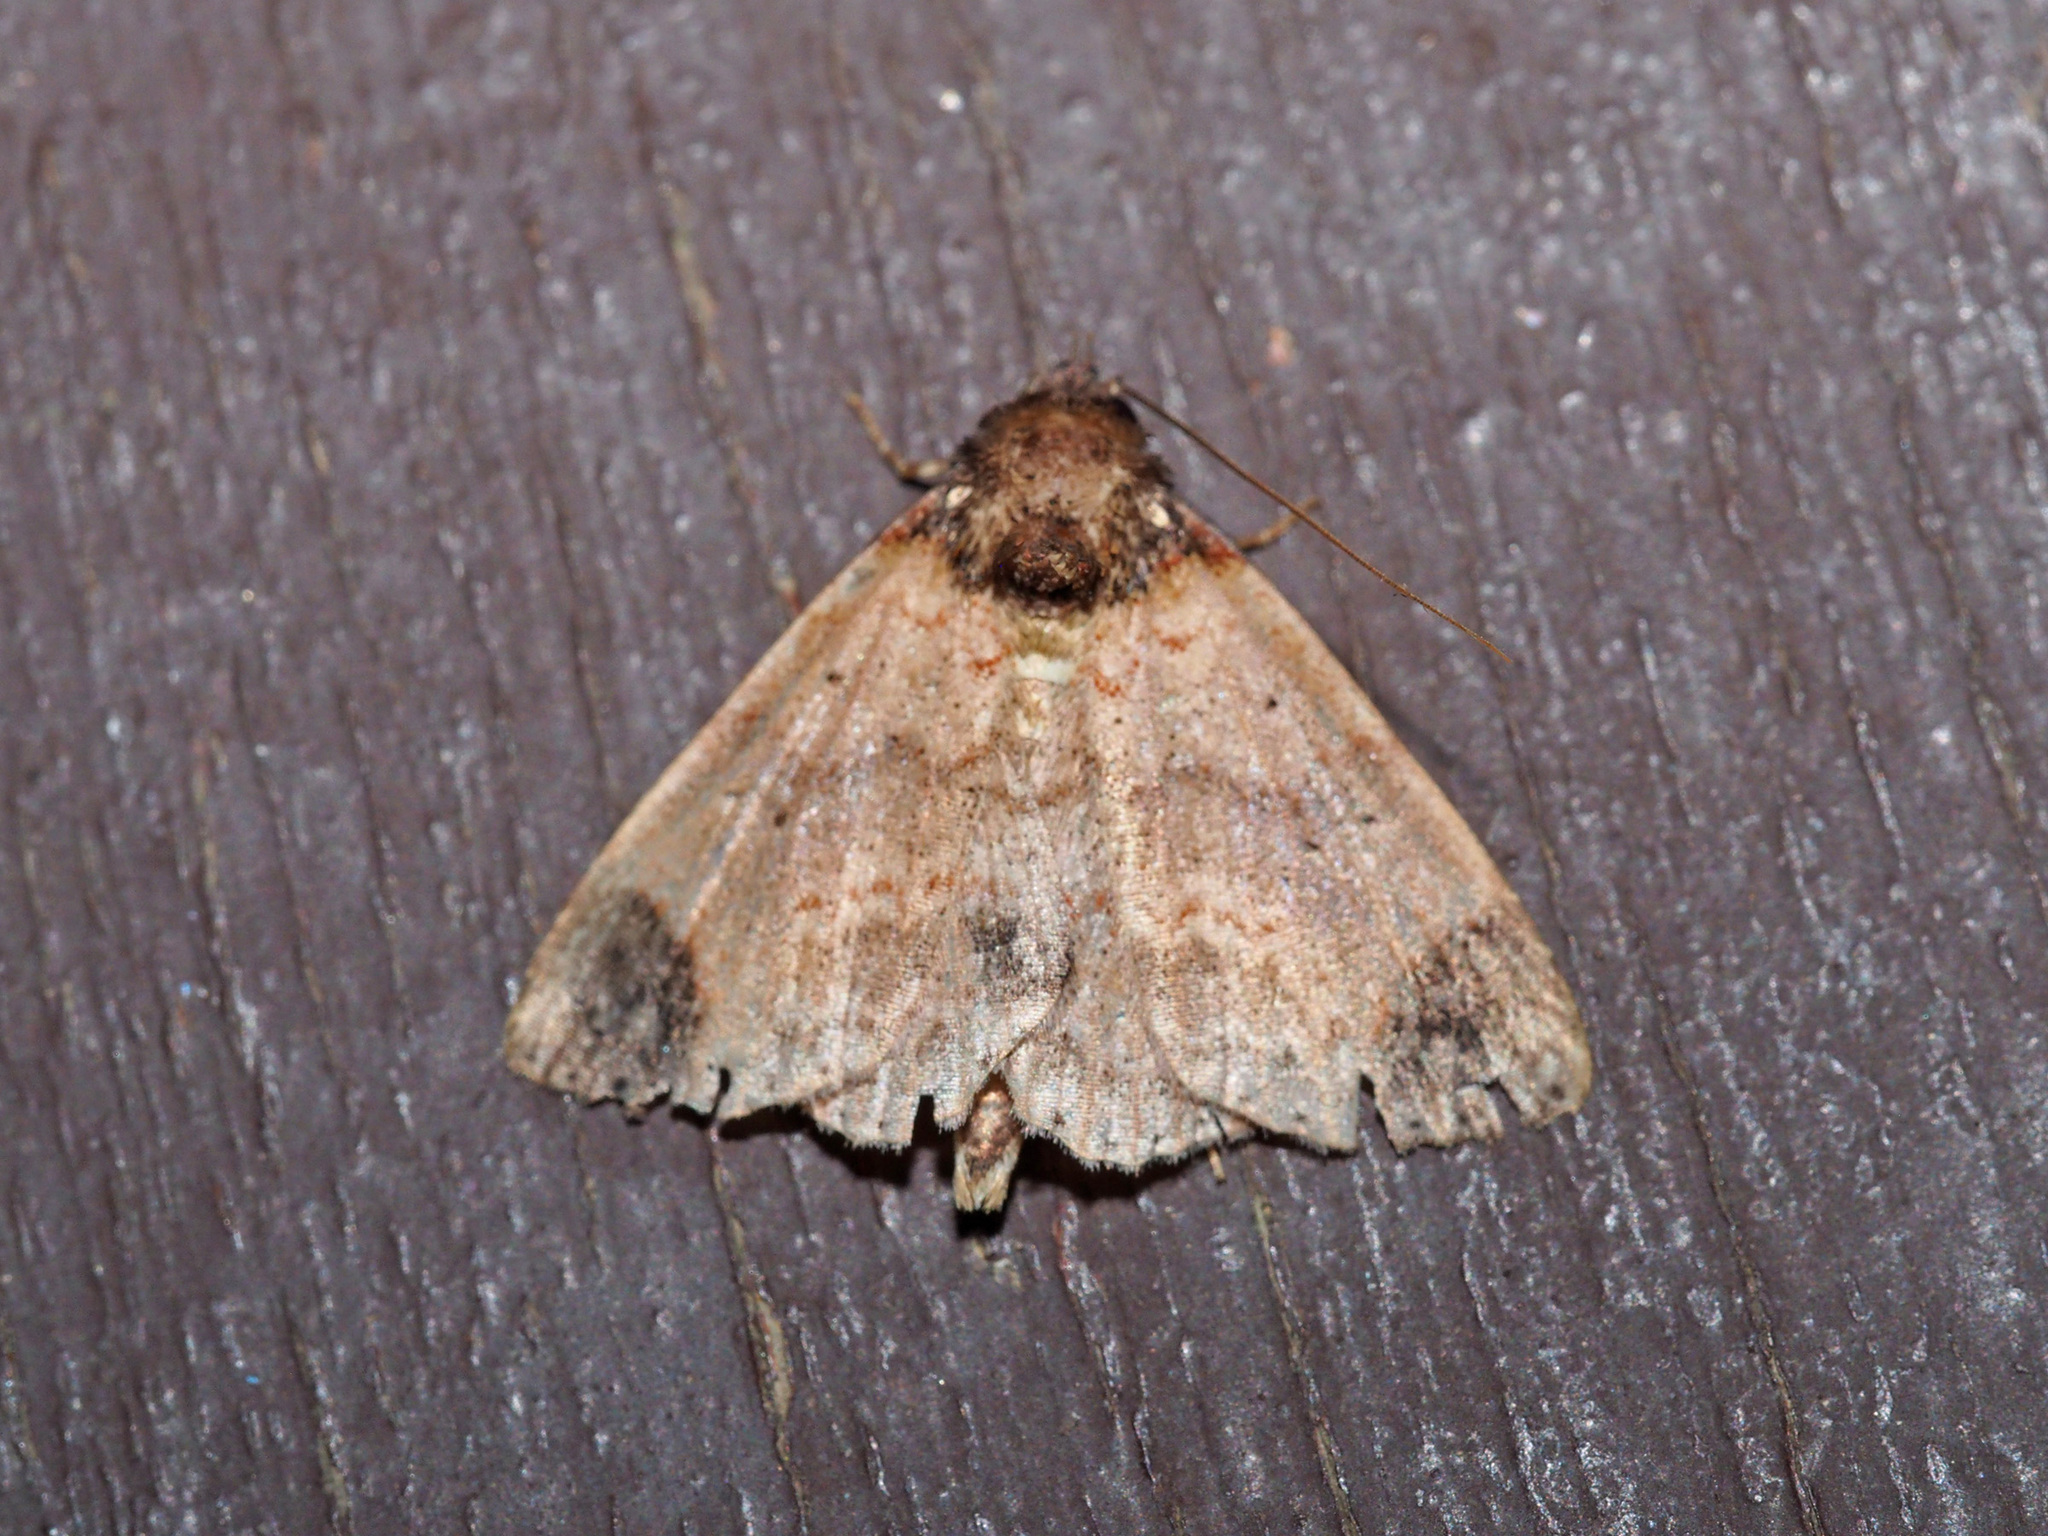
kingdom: Animalia
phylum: Arthropoda
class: Insecta
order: Lepidoptera
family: Erebidae
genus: Dunira
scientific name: Dunira lunapex
